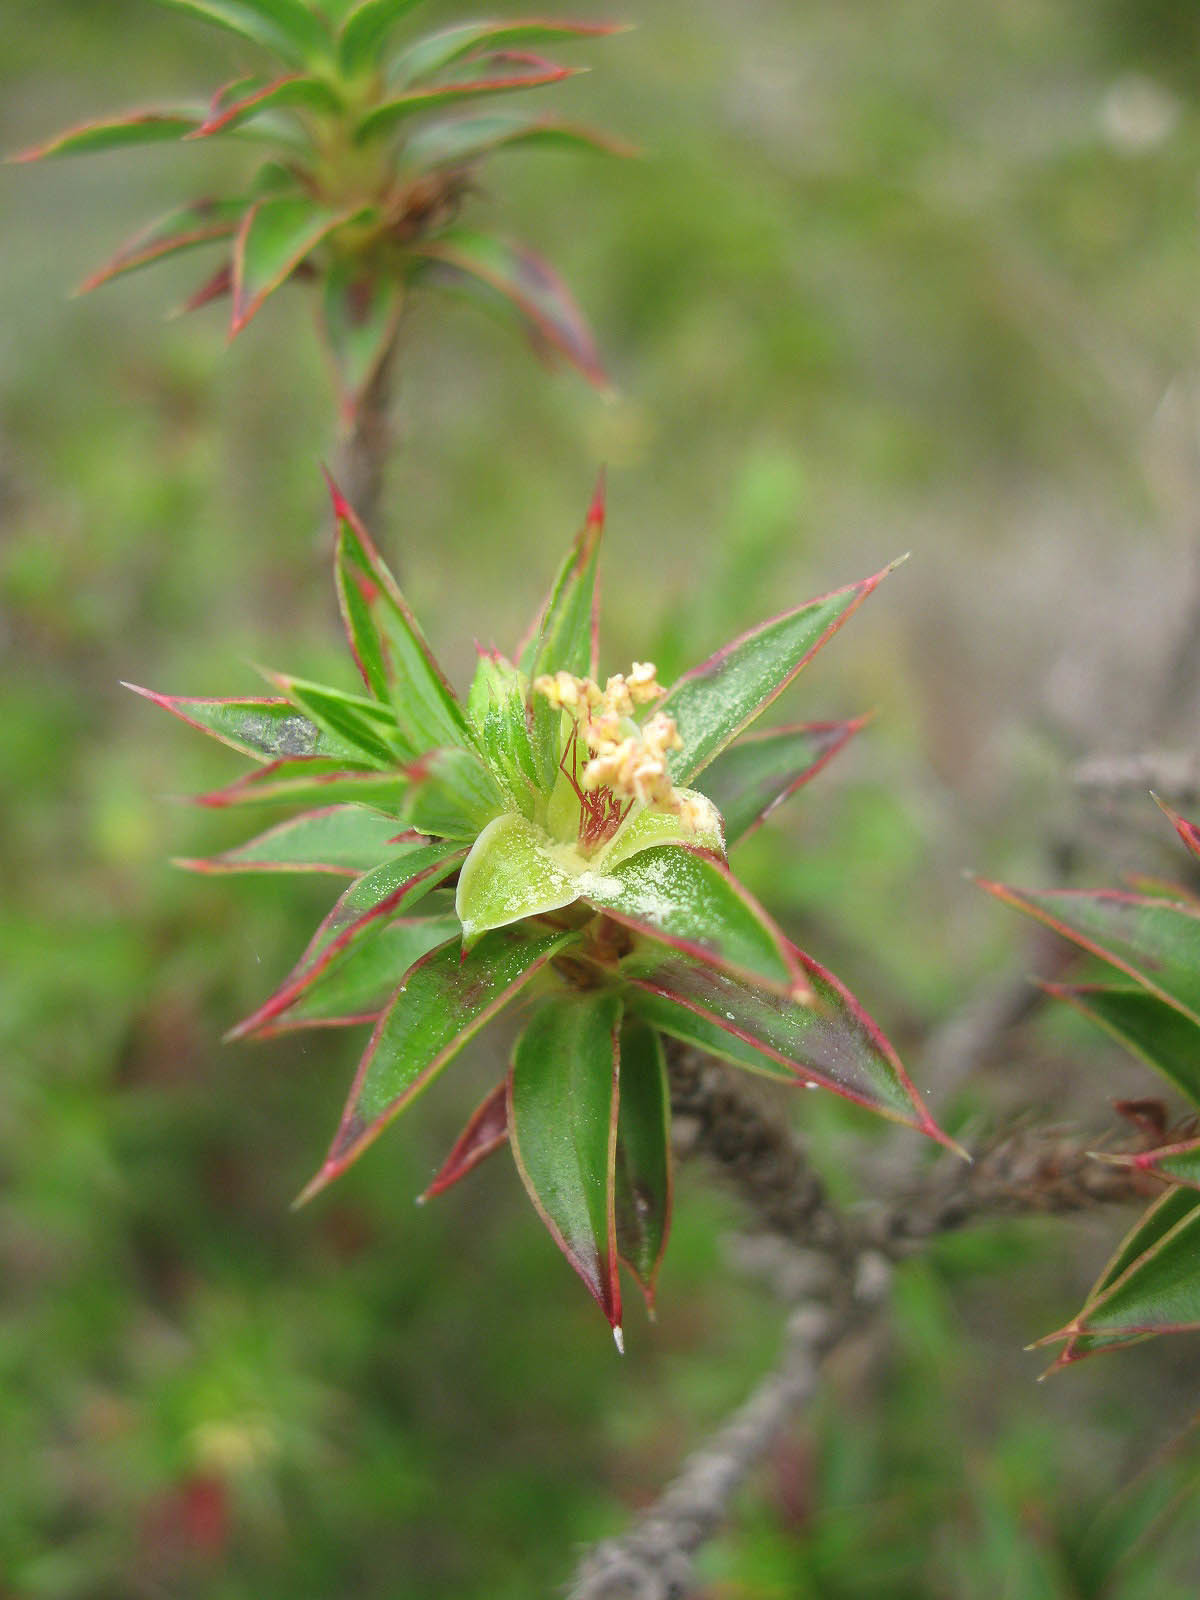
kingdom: Plantae
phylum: Tracheophyta
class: Magnoliopsida
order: Rosales
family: Rosaceae
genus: Cliffortia
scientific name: Cliffortia theodori-friesii
